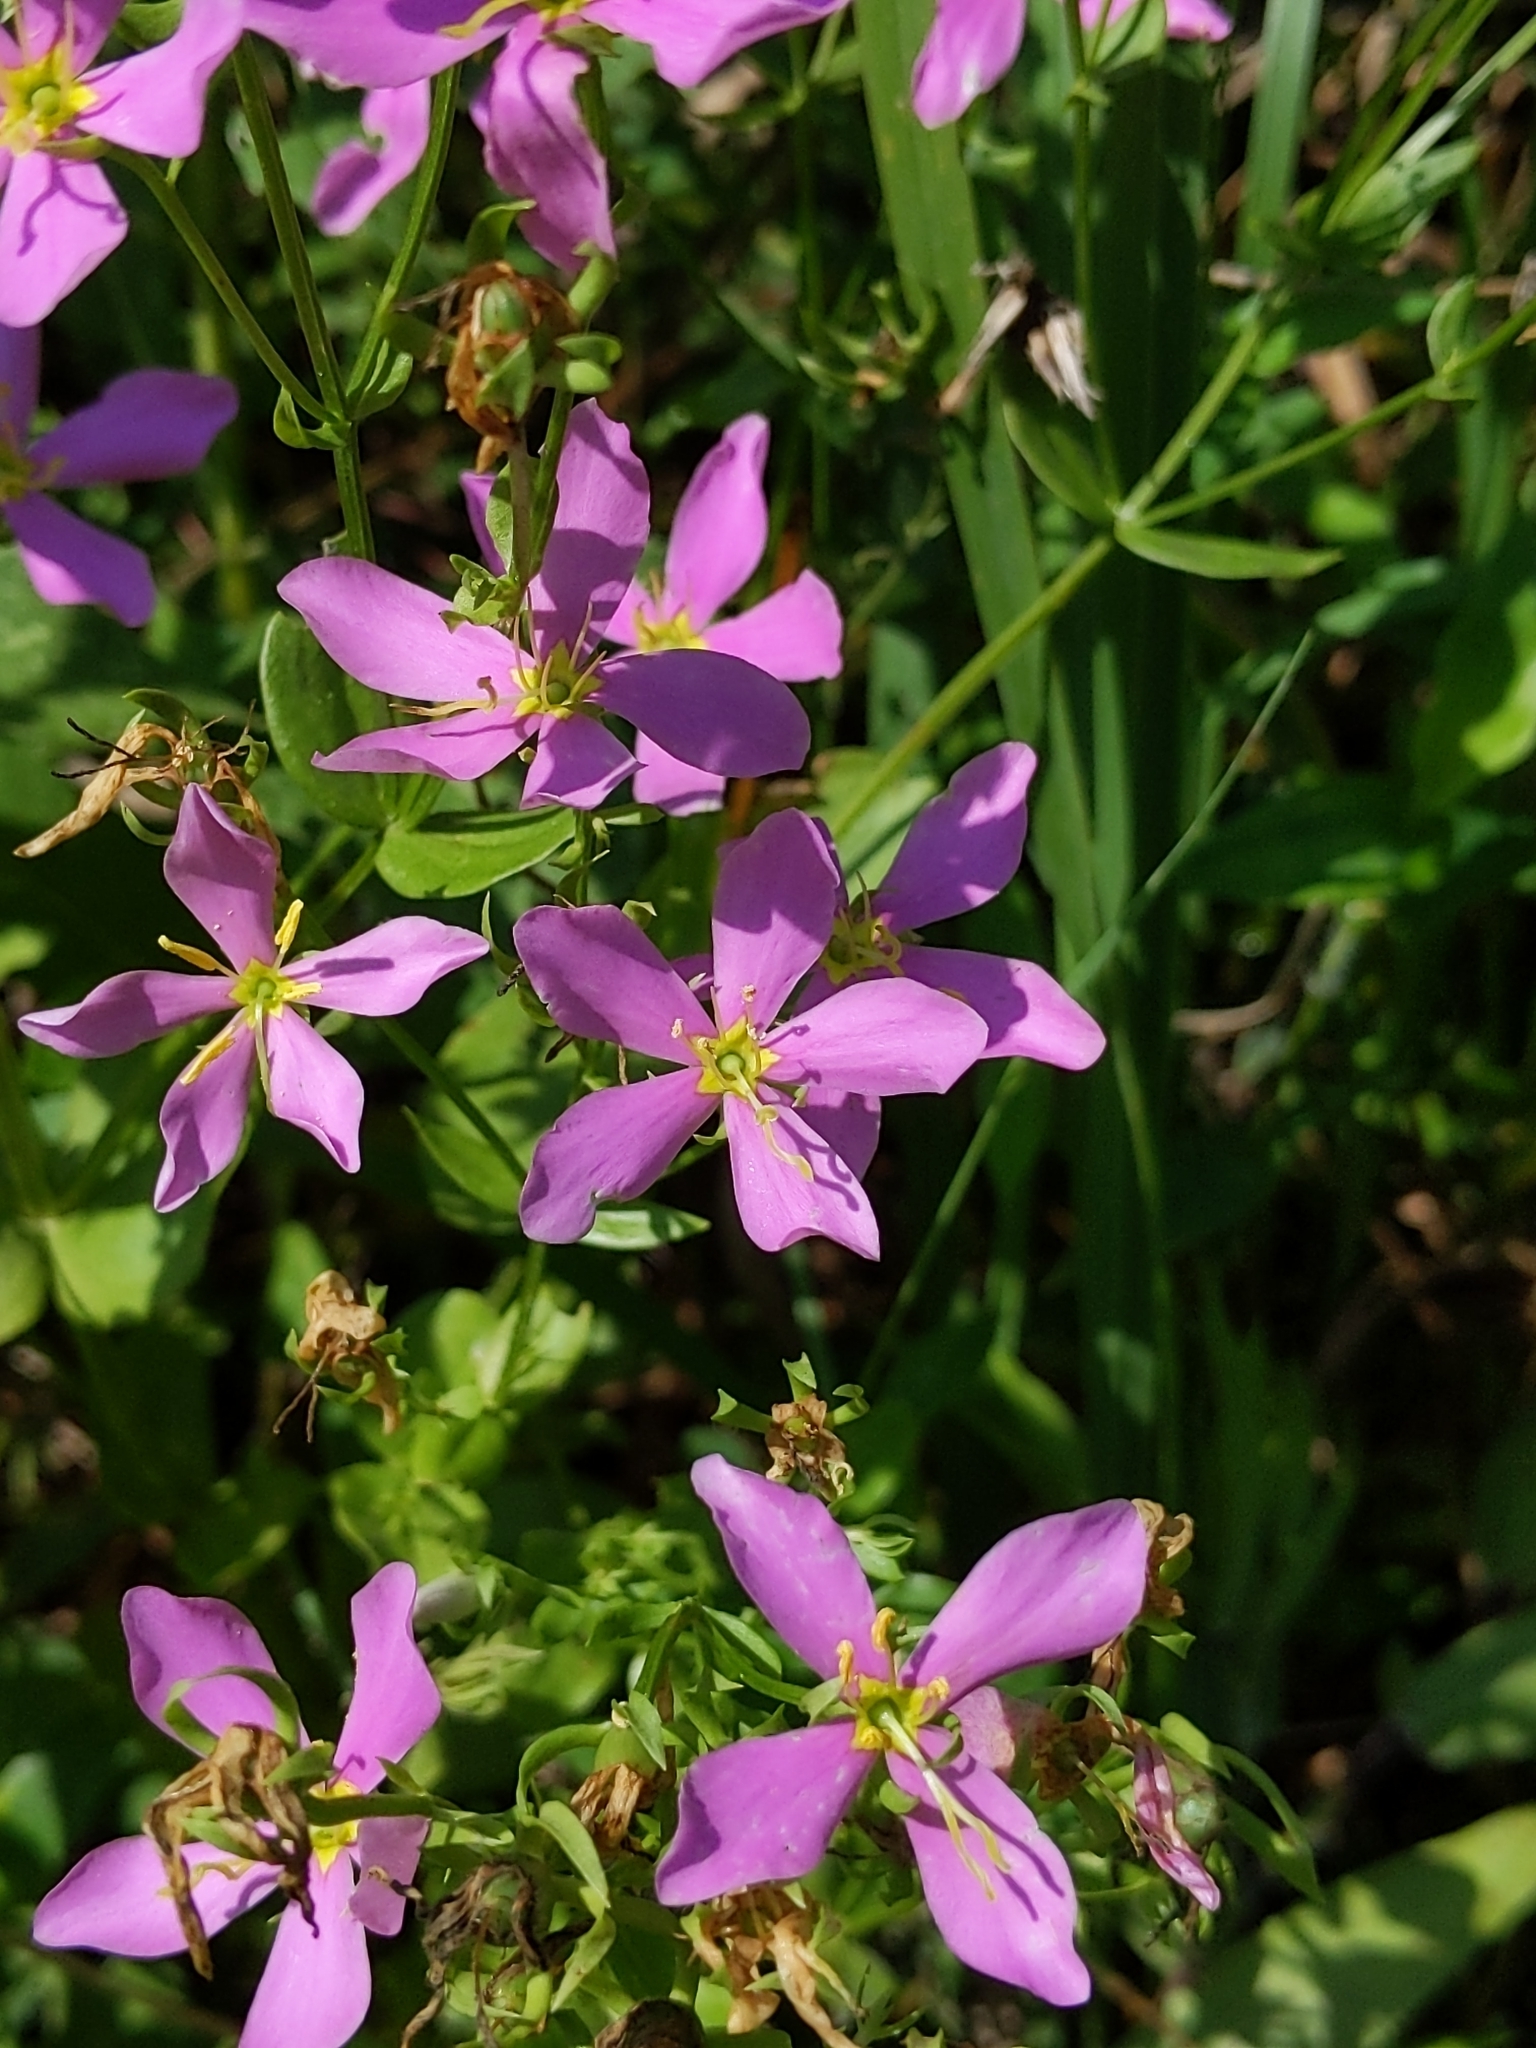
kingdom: Plantae
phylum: Tracheophyta
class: Magnoliopsida
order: Gentianales
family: Gentianaceae
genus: Sabatia
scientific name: Sabatia angularis
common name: Rose-pink
